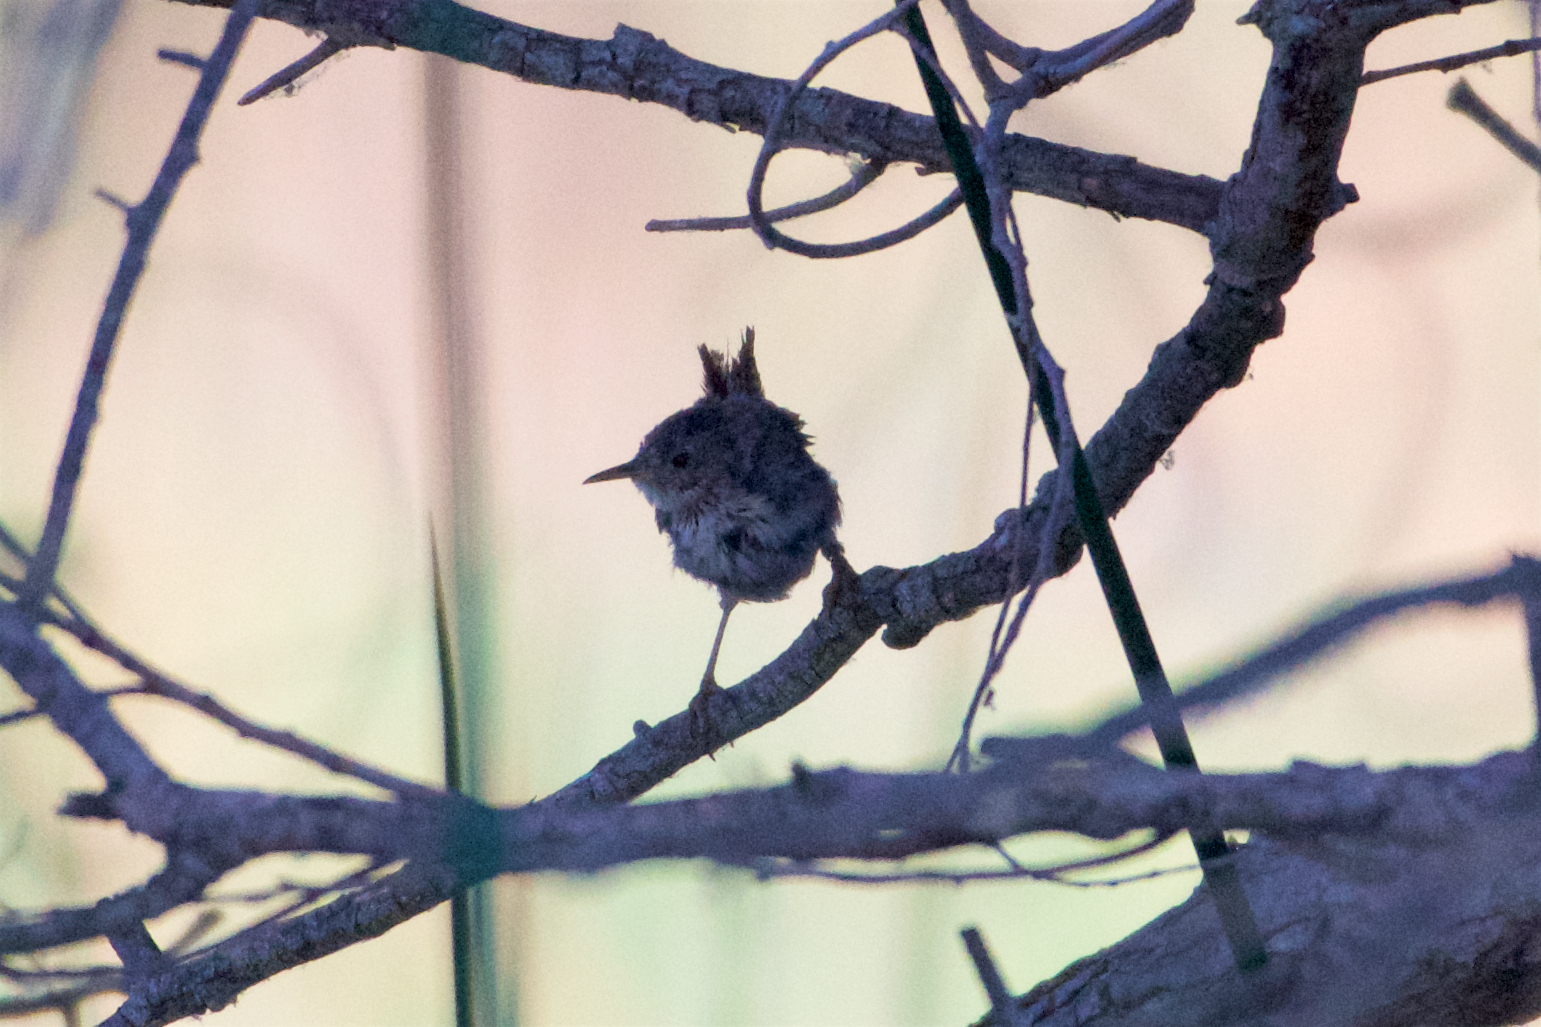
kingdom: Animalia
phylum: Chordata
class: Aves
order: Passeriformes
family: Troglodytidae
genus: Troglodytes
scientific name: Troglodytes aedon
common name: House wren
